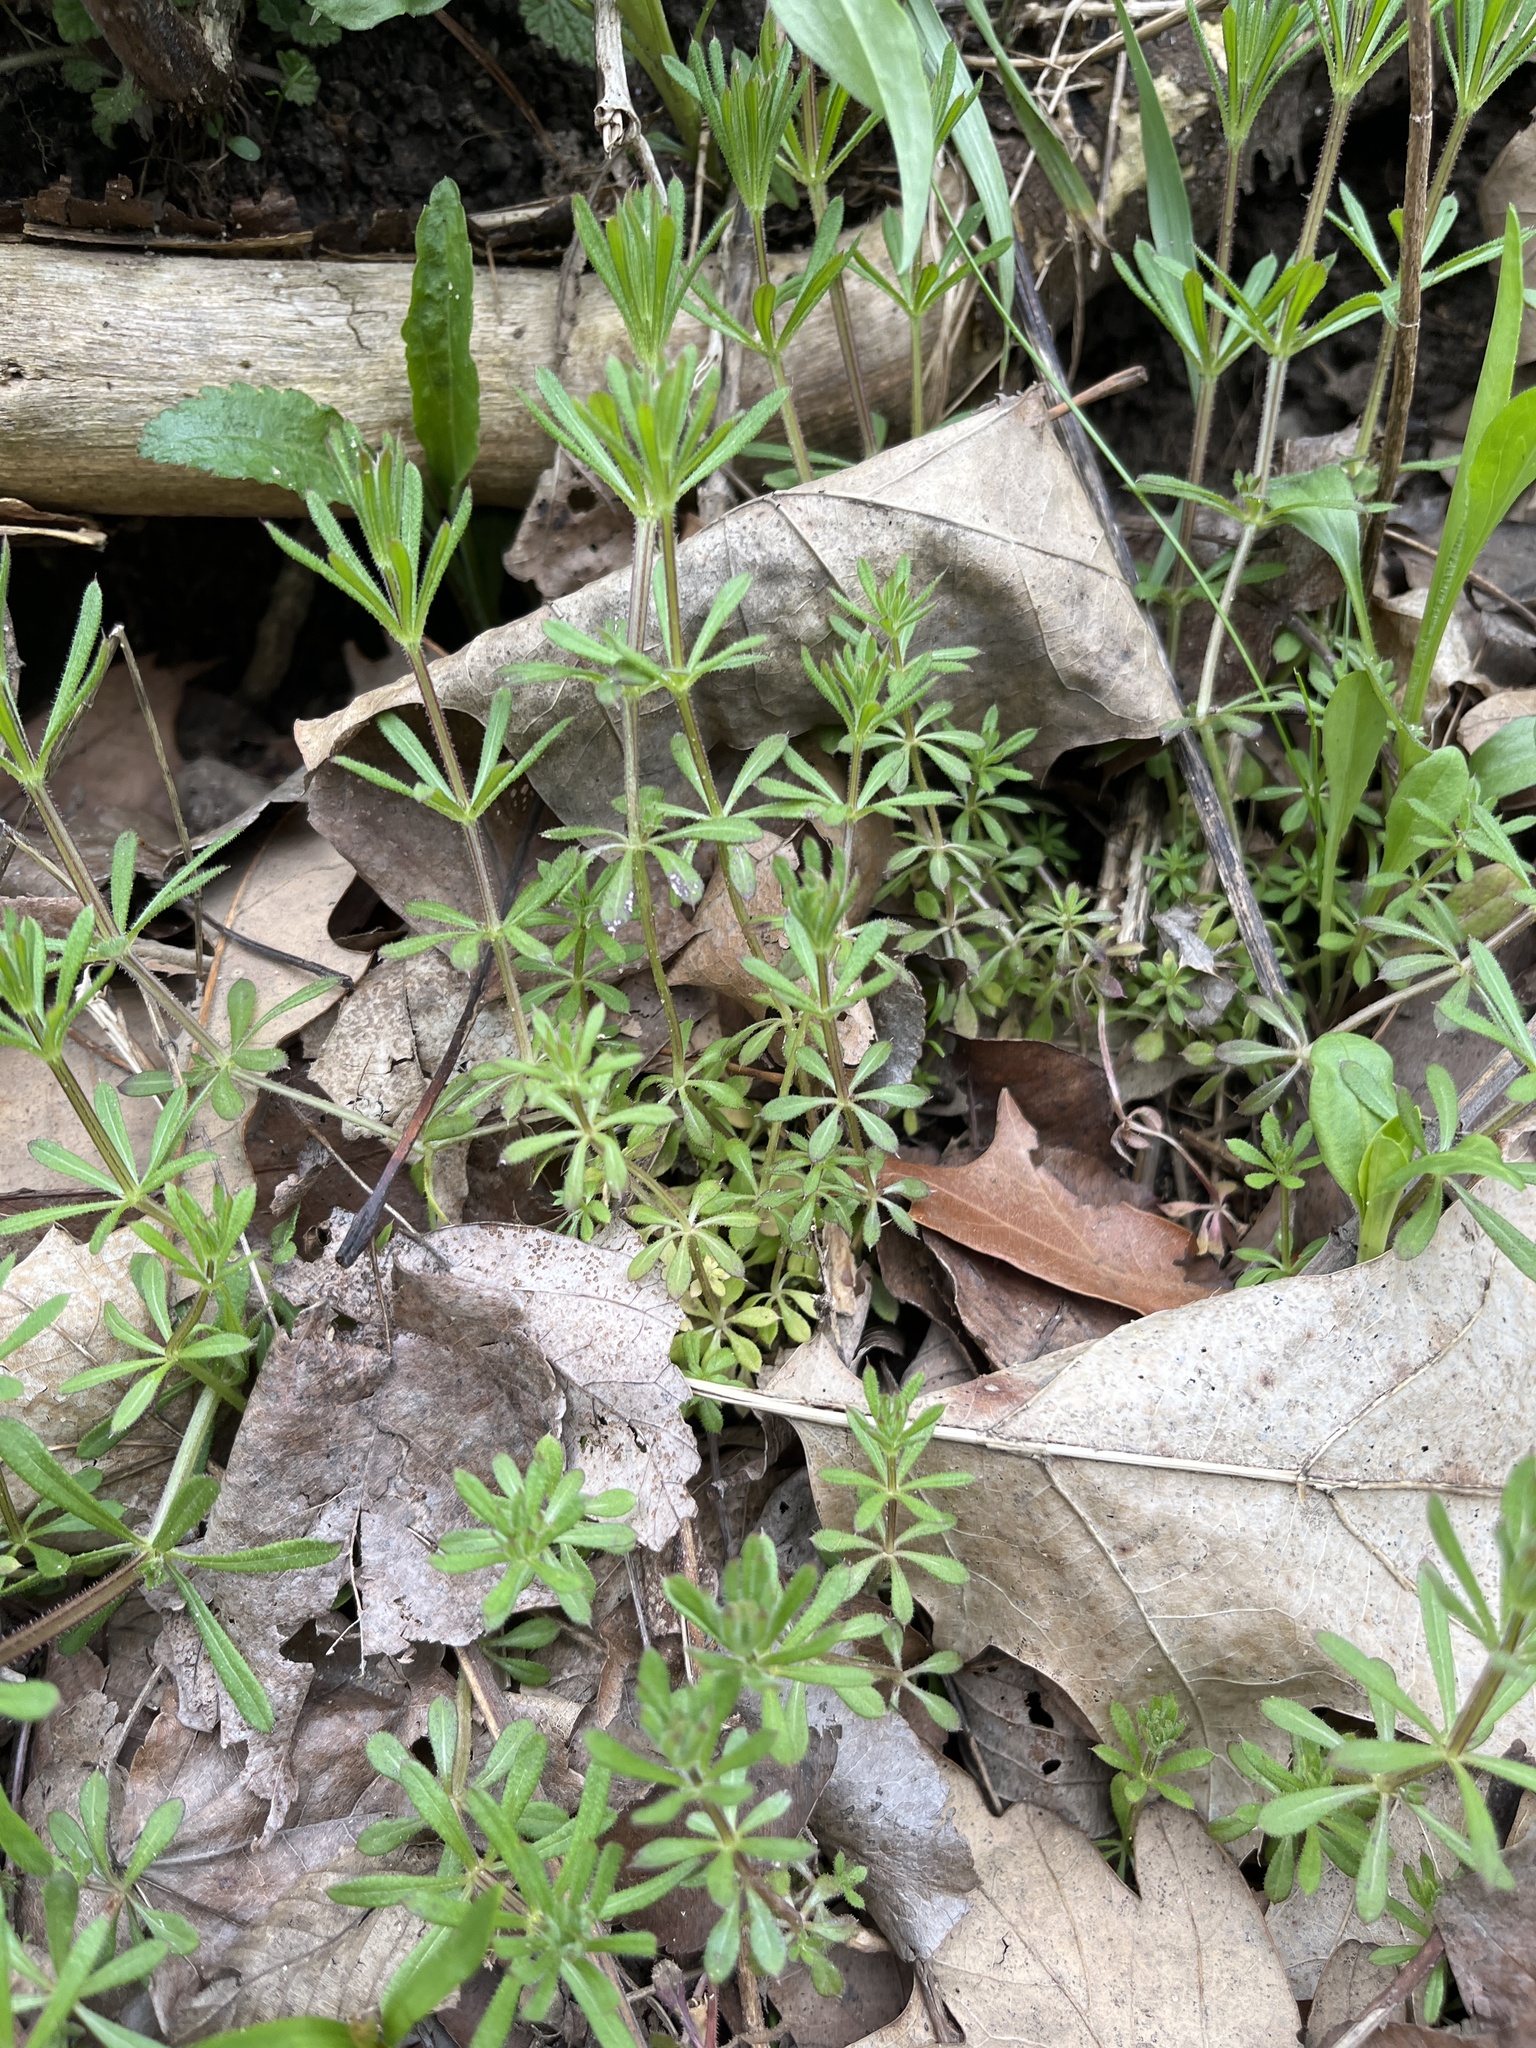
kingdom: Plantae
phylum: Tracheophyta
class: Magnoliopsida
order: Gentianales
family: Rubiaceae
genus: Galium
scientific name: Galium aparine
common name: Cleavers
